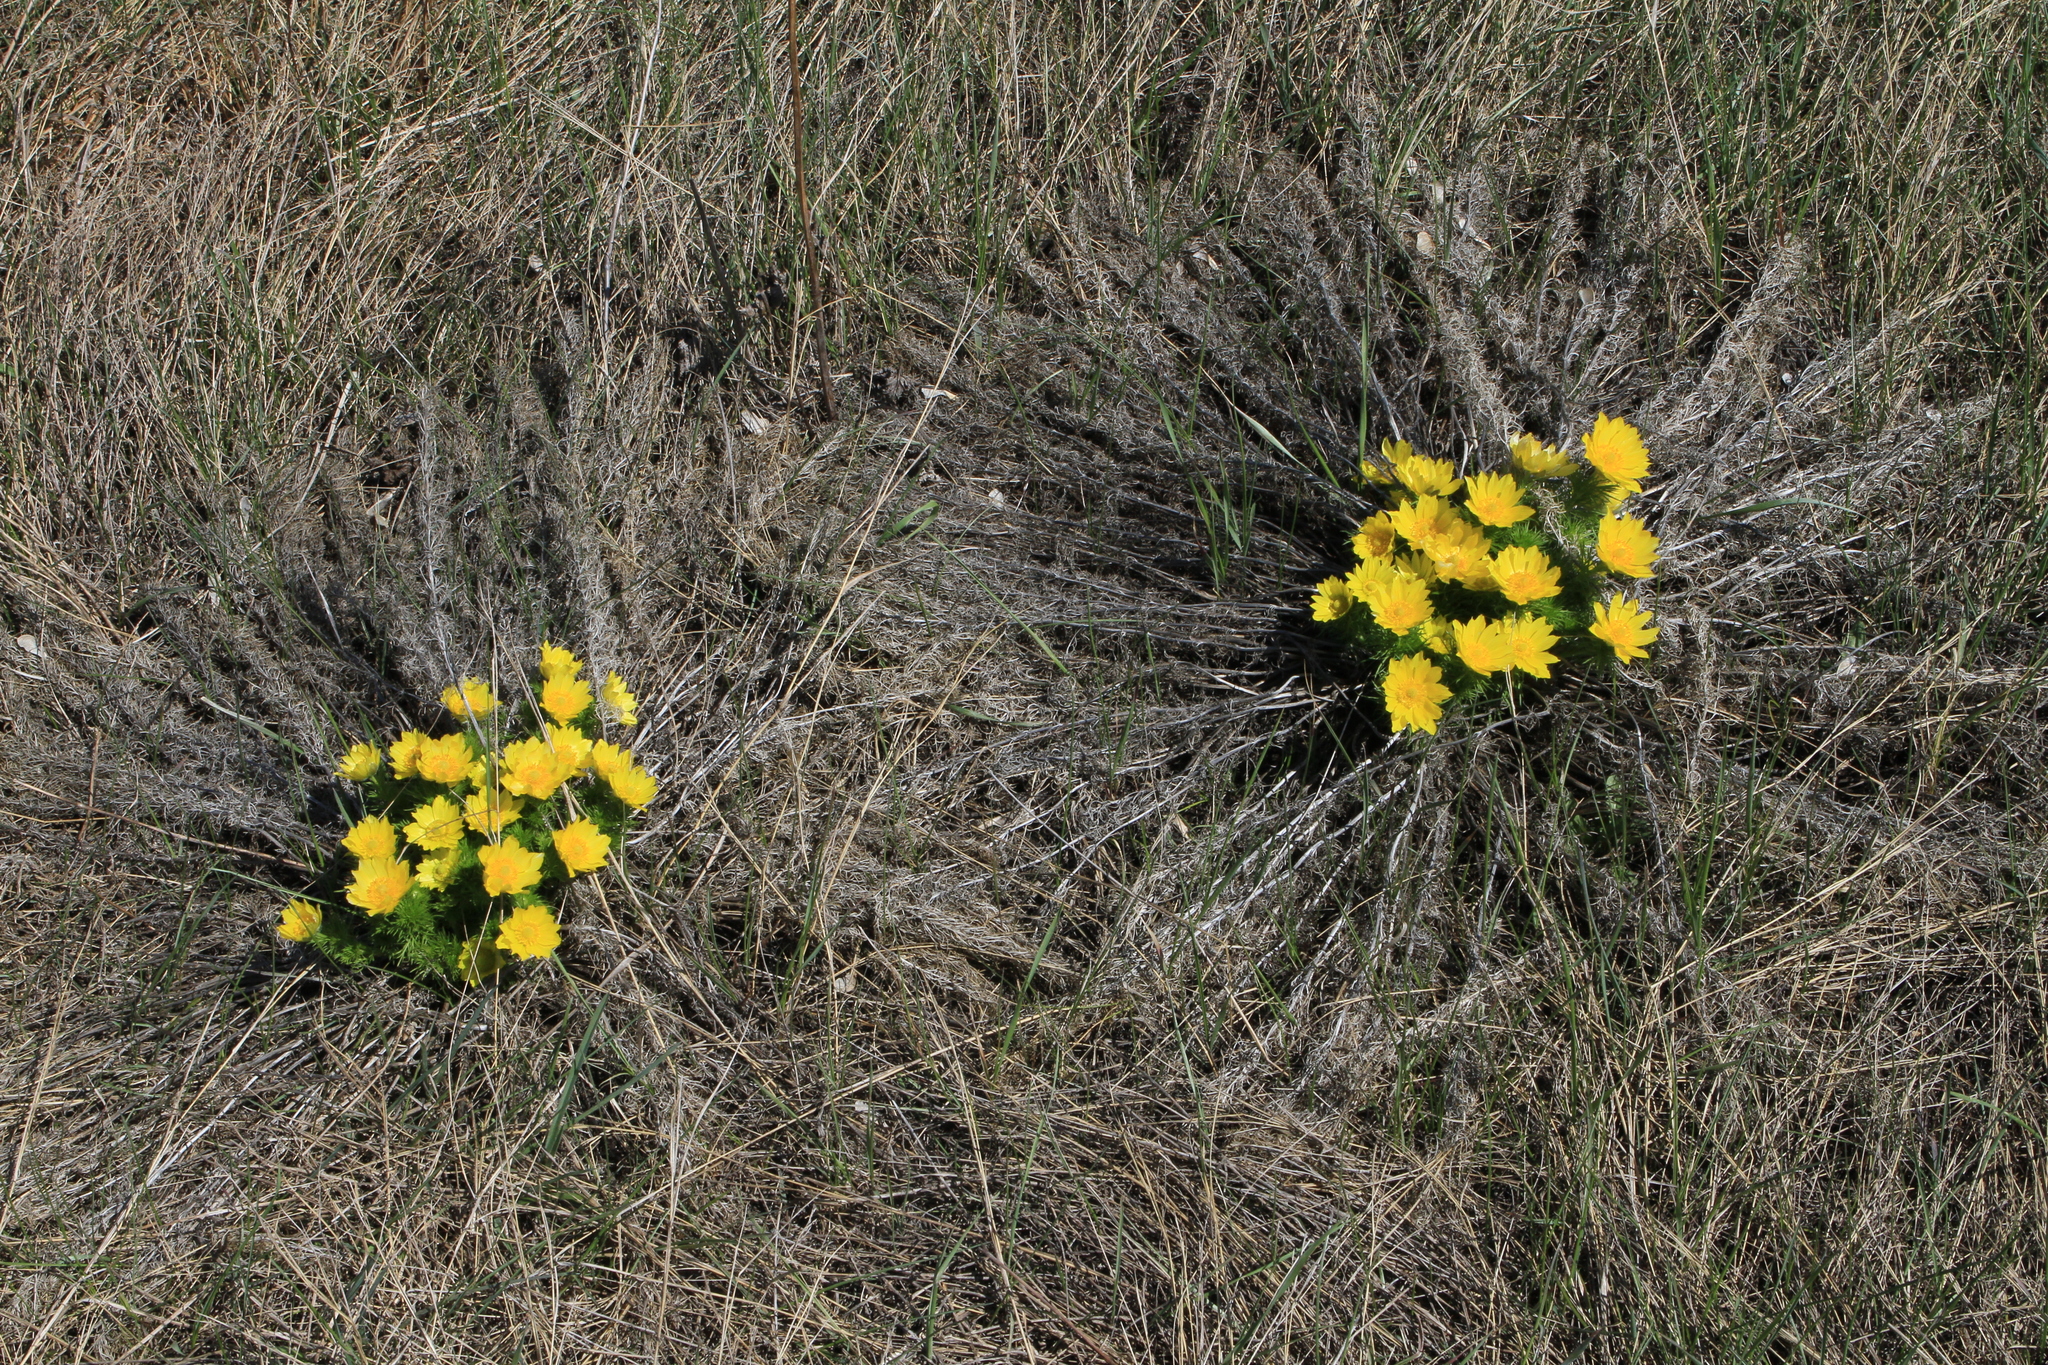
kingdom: Plantae
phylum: Tracheophyta
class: Magnoliopsida
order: Ranunculales
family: Ranunculaceae
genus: Adonis
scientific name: Adonis vernalis
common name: Yellow pheasants-eye
